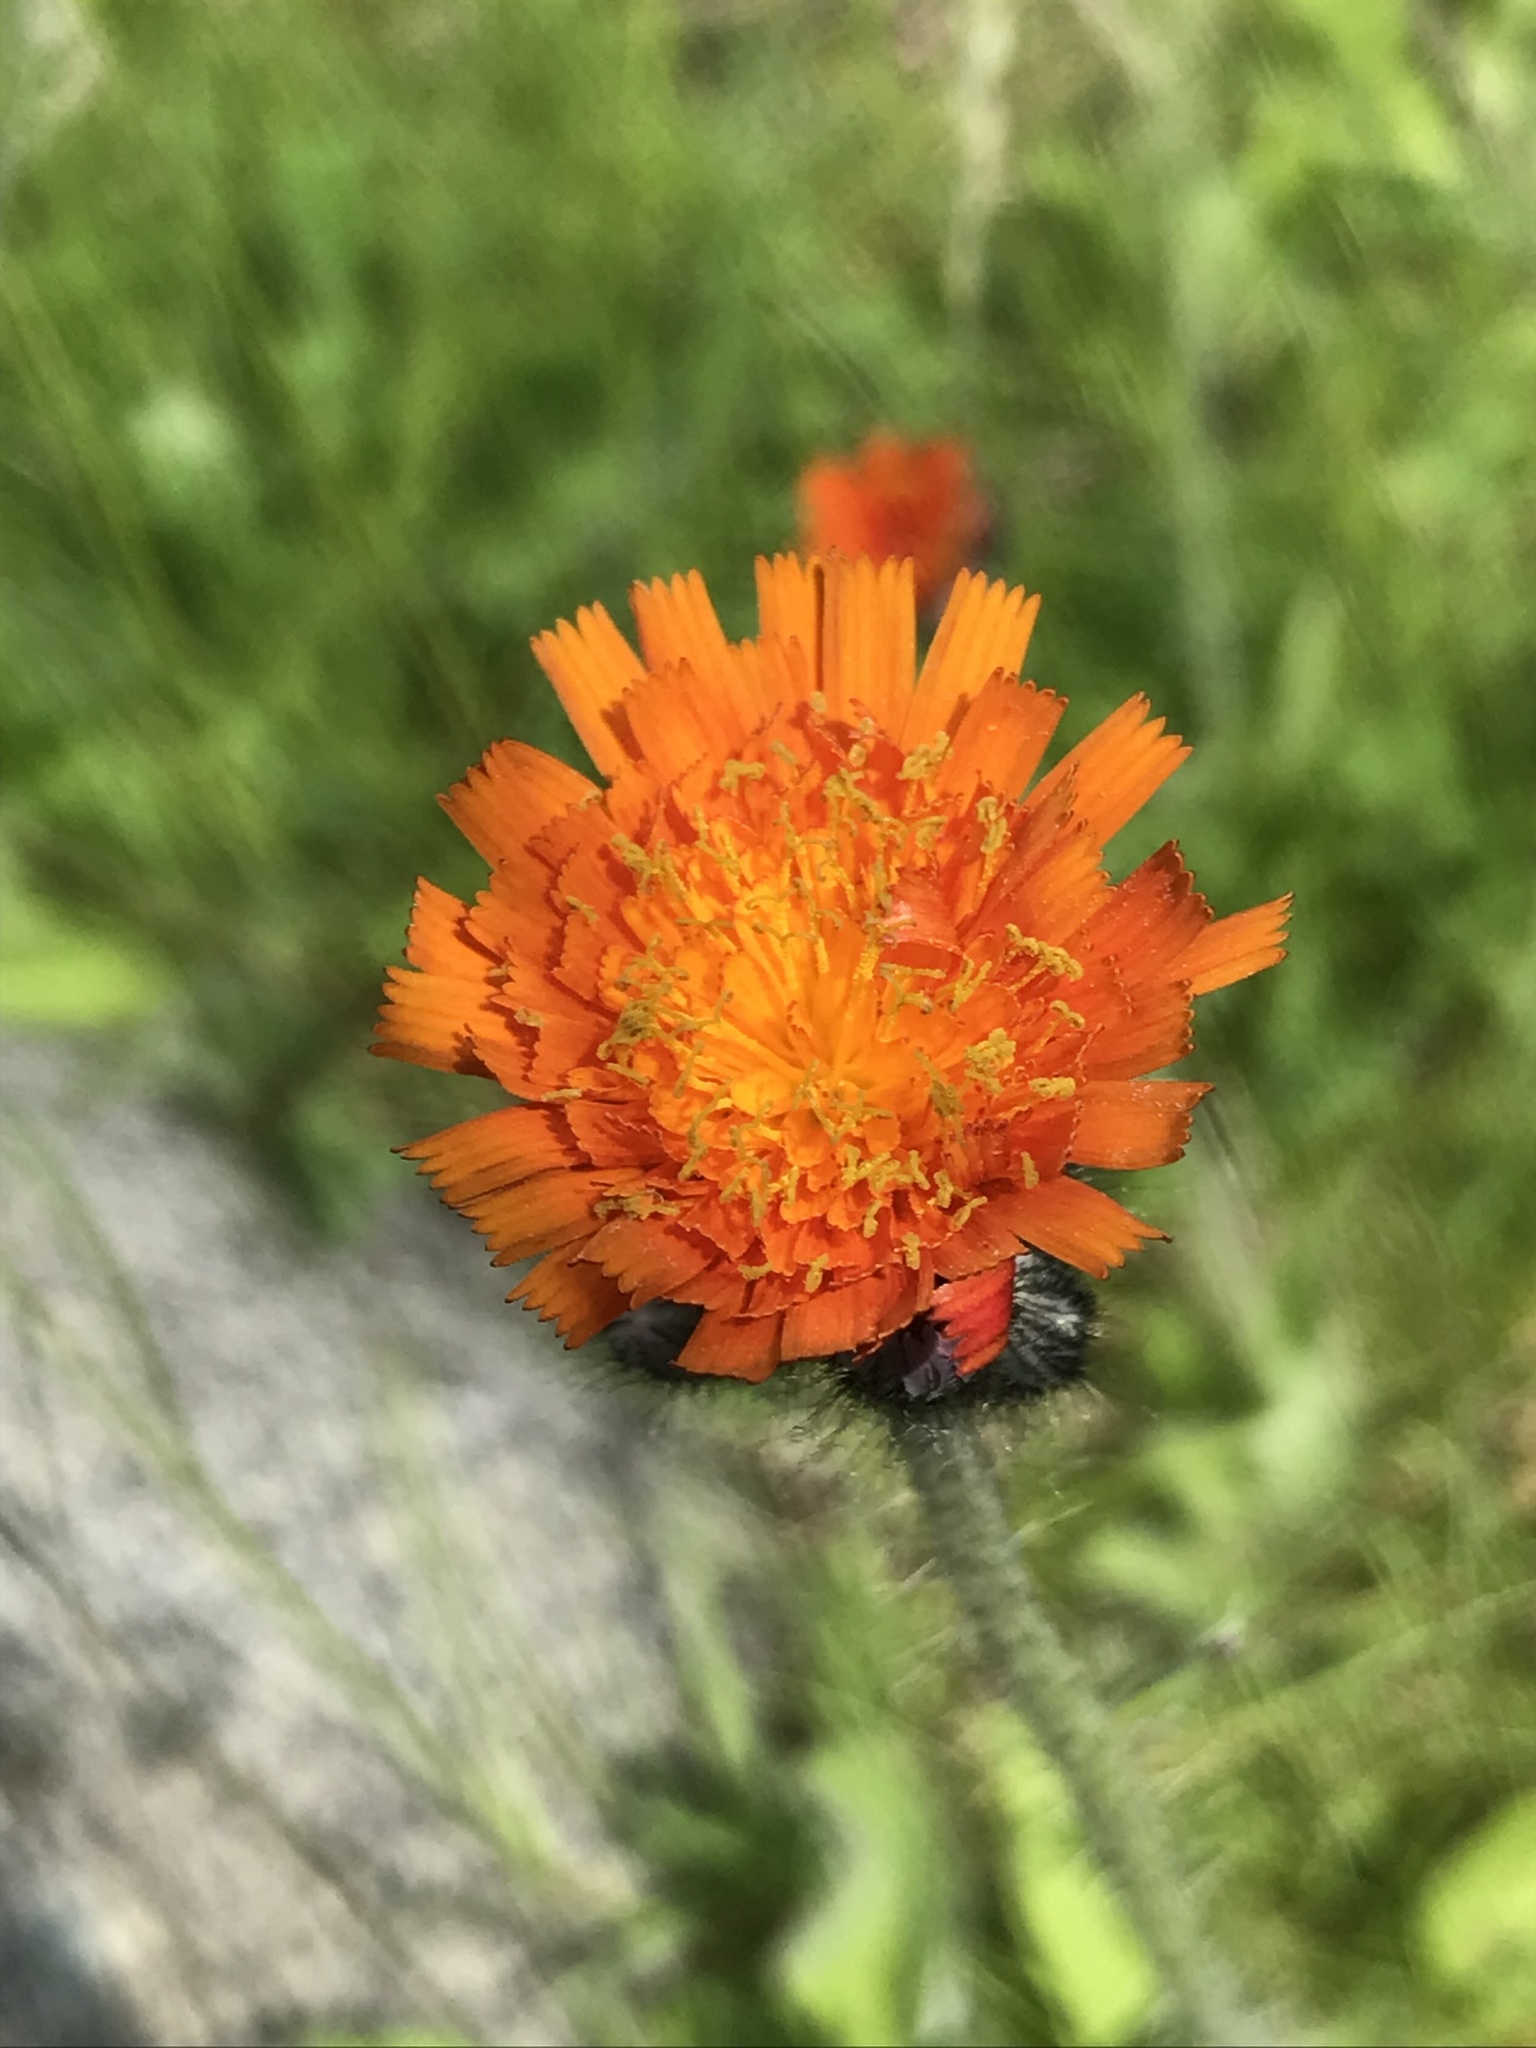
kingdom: Plantae
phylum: Tracheophyta
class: Magnoliopsida
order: Asterales
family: Asteraceae
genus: Pilosella
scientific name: Pilosella aurantiaca
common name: Fox-and-cubs
